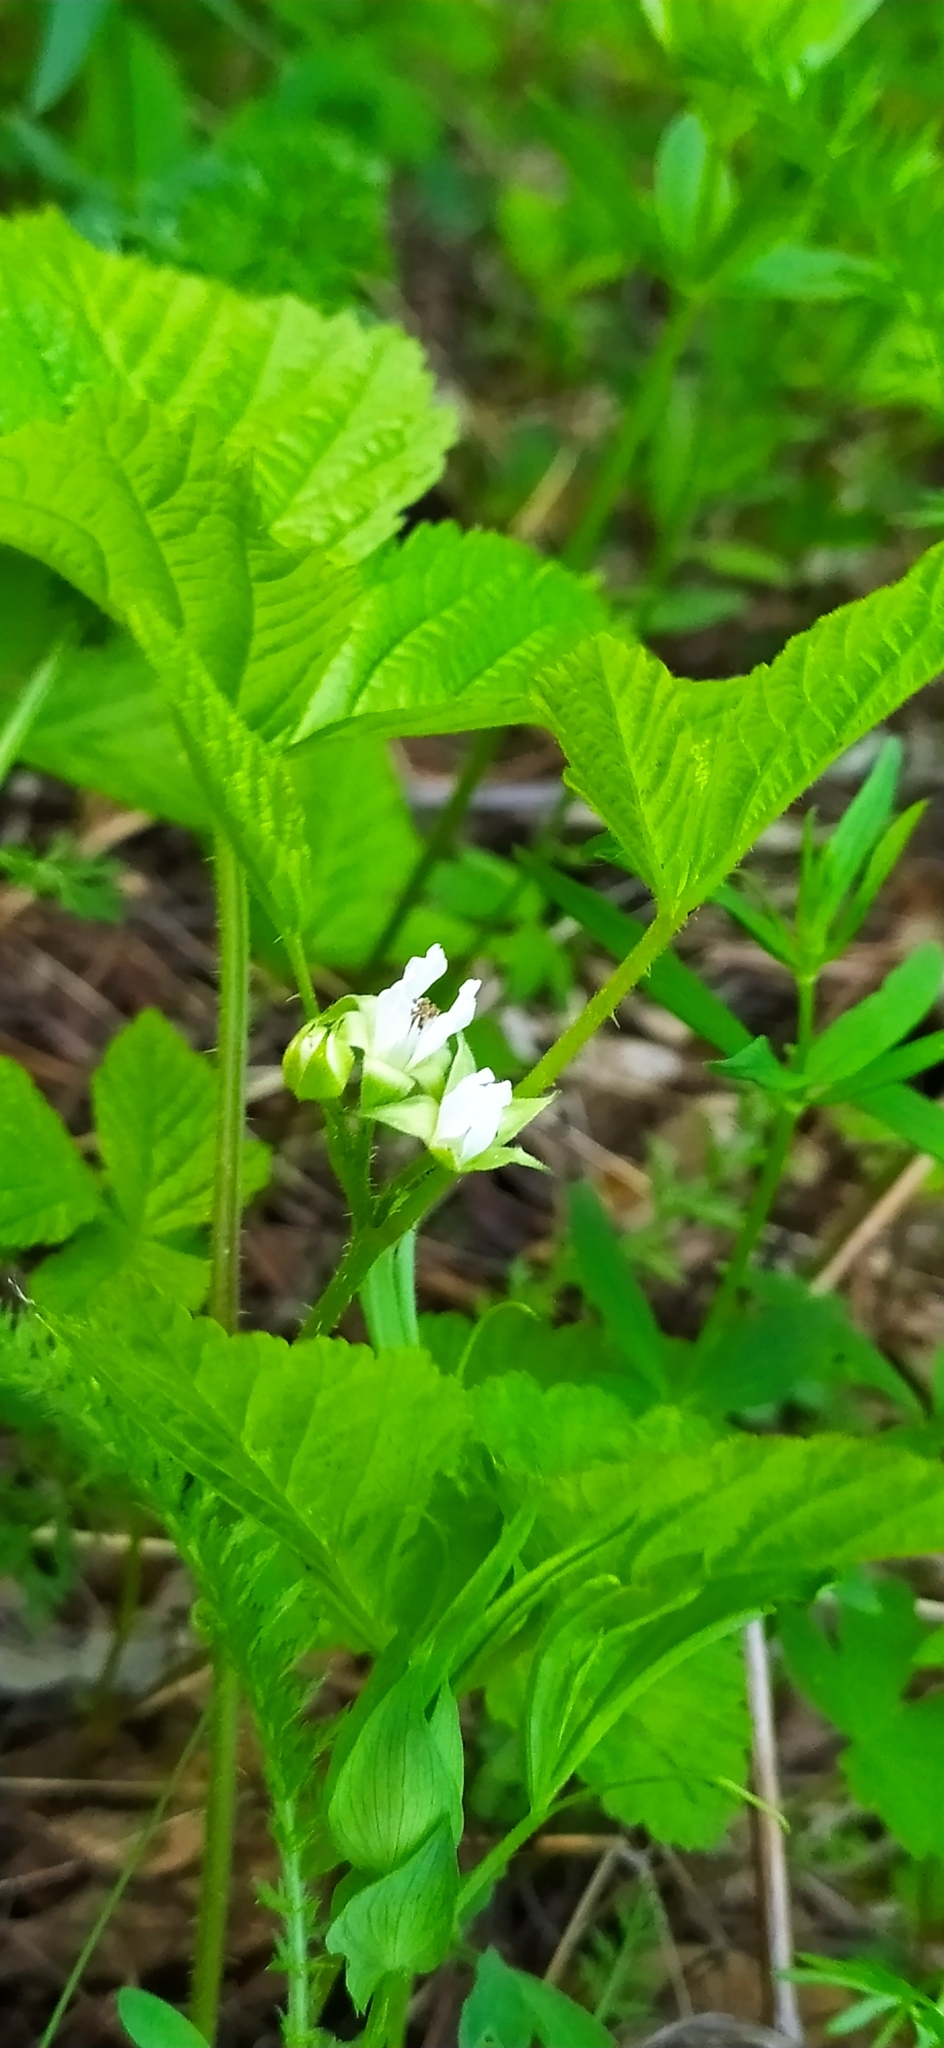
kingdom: Plantae
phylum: Tracheophyta
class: Magnoliopsida
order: Rosales
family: Rosaceae
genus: Rubus
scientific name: Rubus saxatilis
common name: Stone bramble
